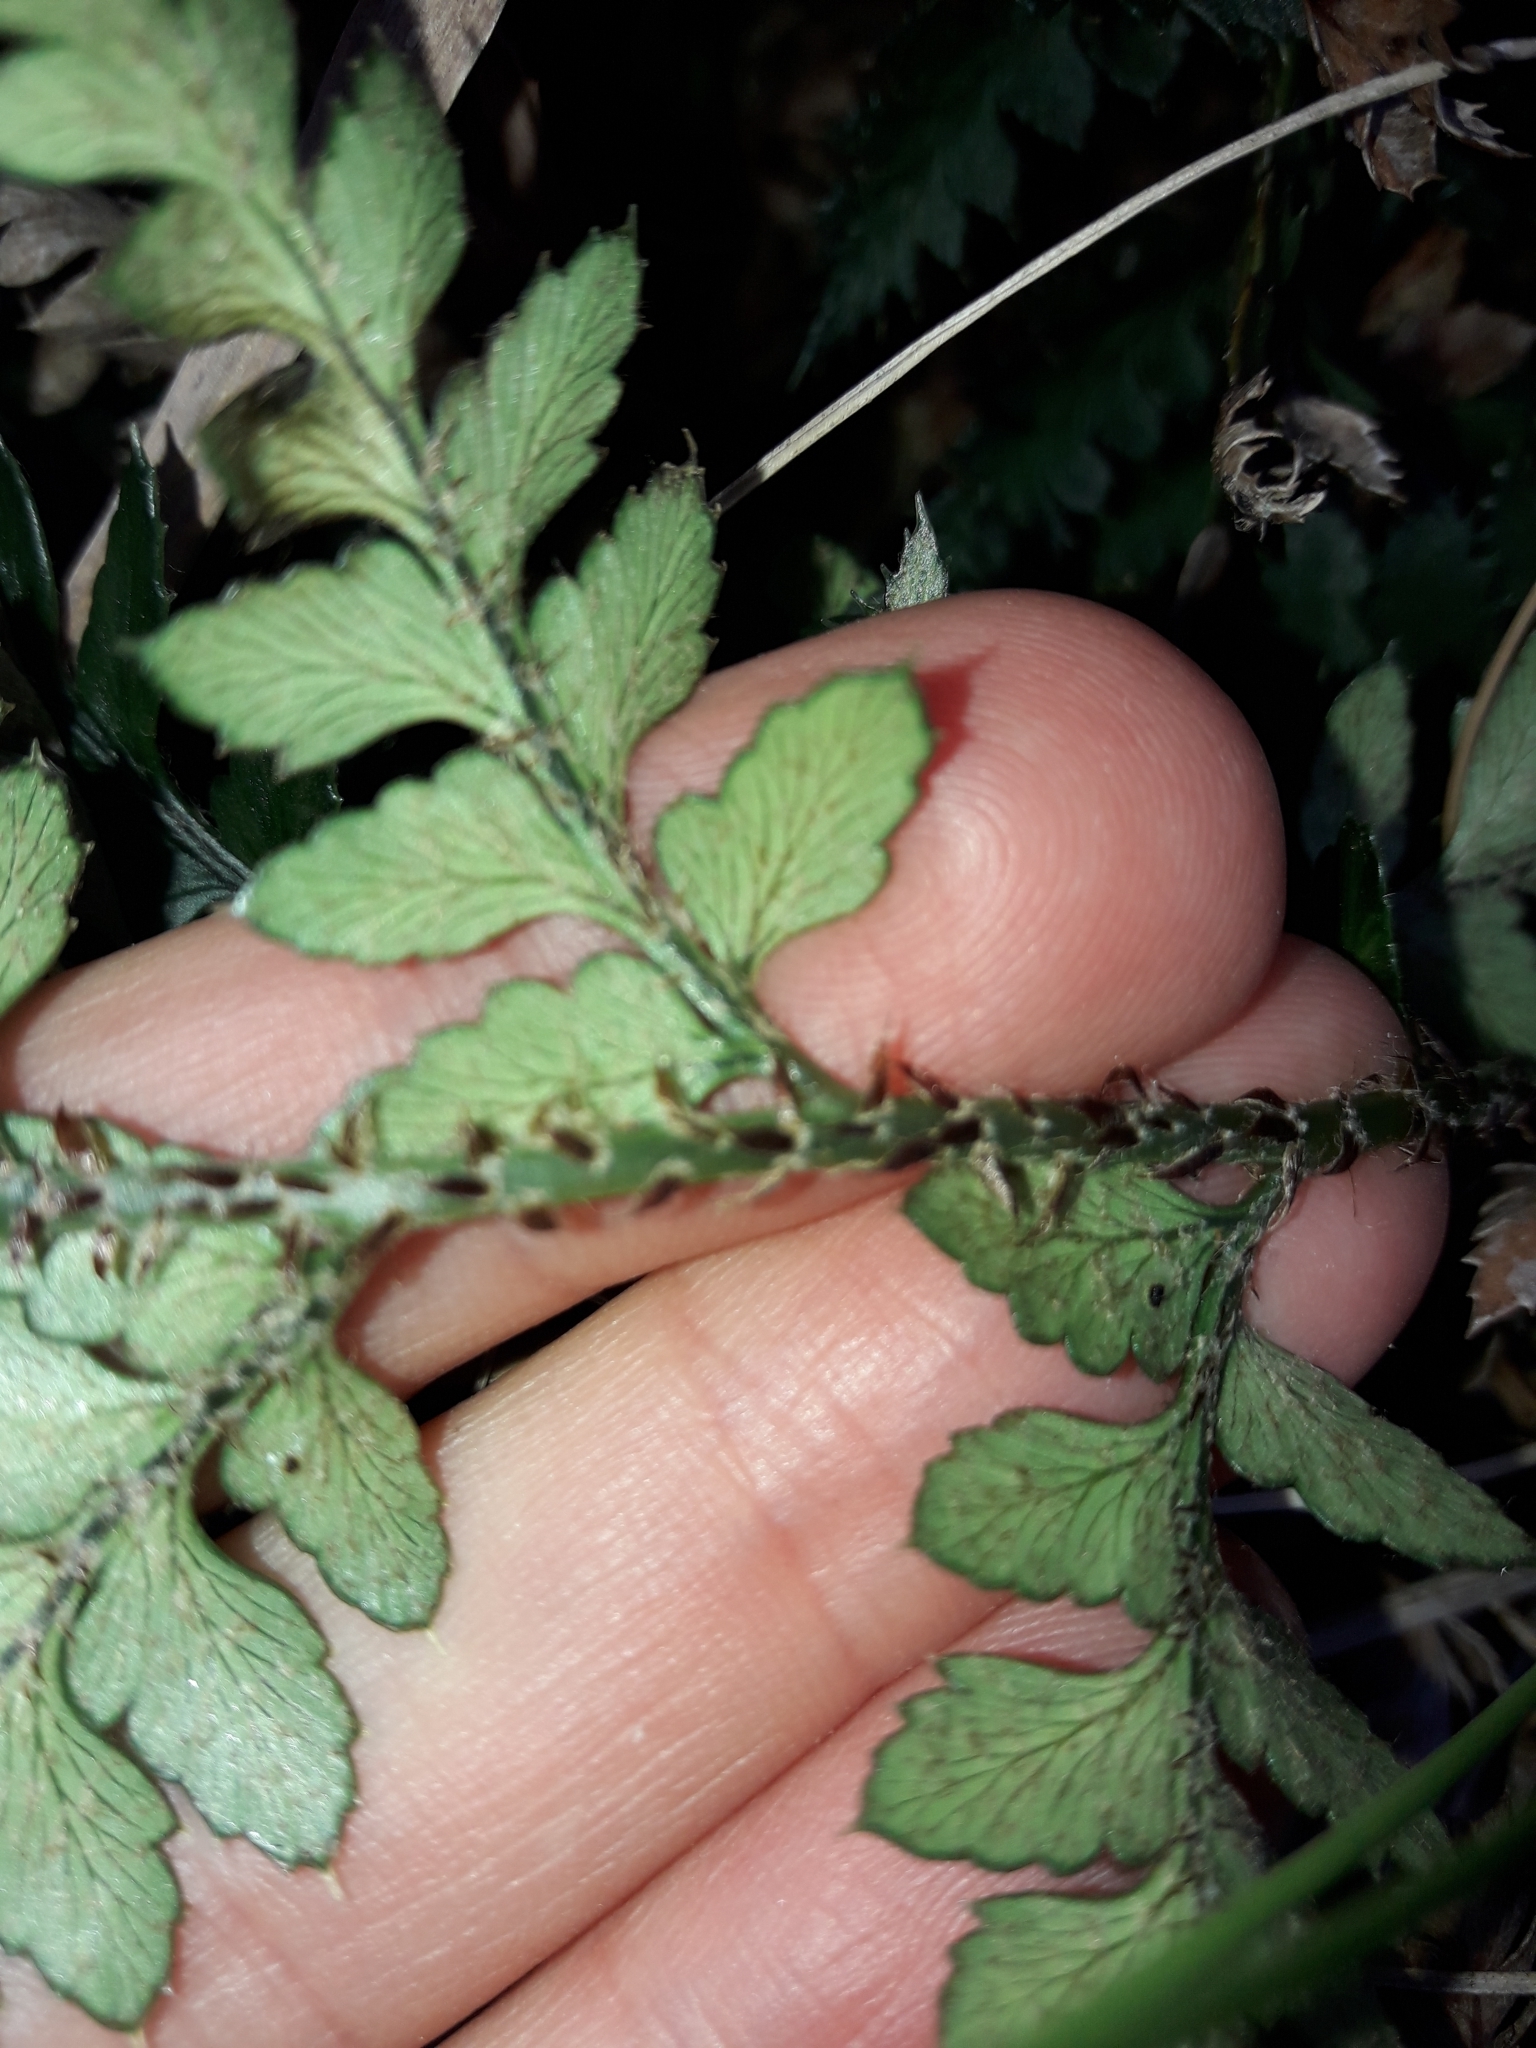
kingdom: Plantae
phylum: Tracheophyta
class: Polypodiopsida
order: Polypodiales
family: Dryopteridaceae
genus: Polystichum
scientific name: Polystichum oculatum
